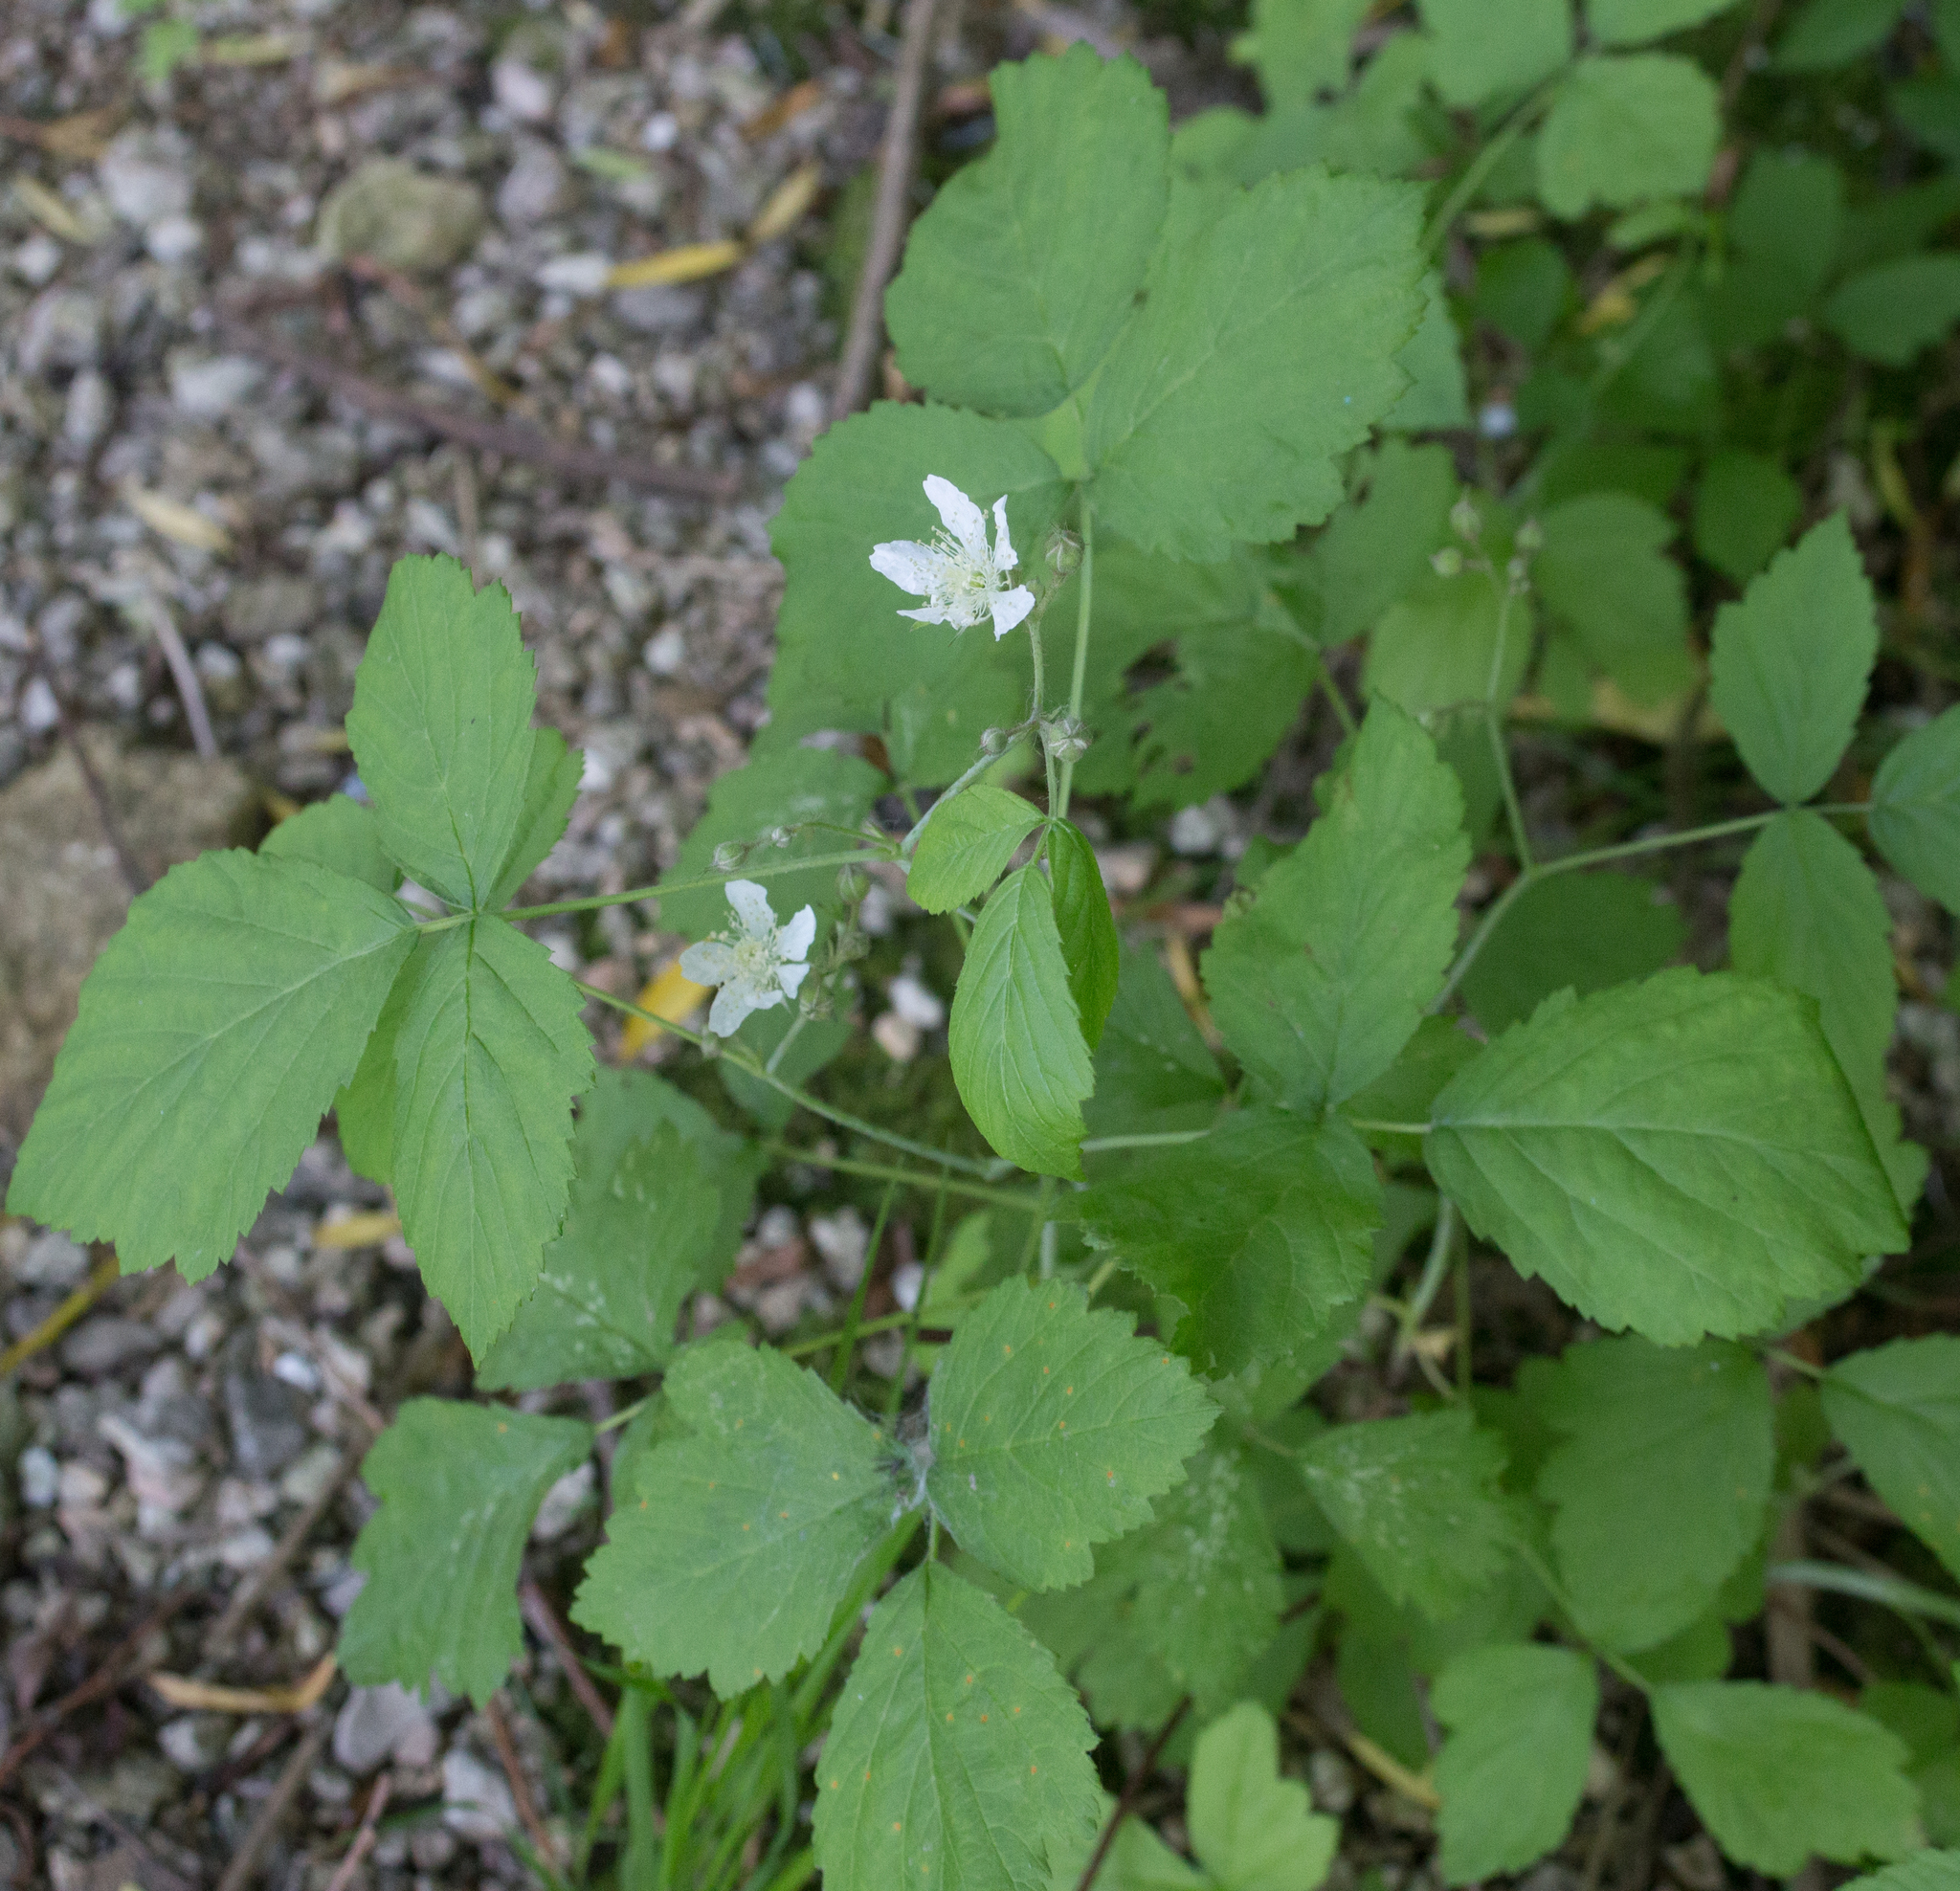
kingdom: Plantae
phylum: Tracheophyta
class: Magnoliopsida
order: Rosales
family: Rosaceae
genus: Rubus
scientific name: Rubus caesius
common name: Dewberry
